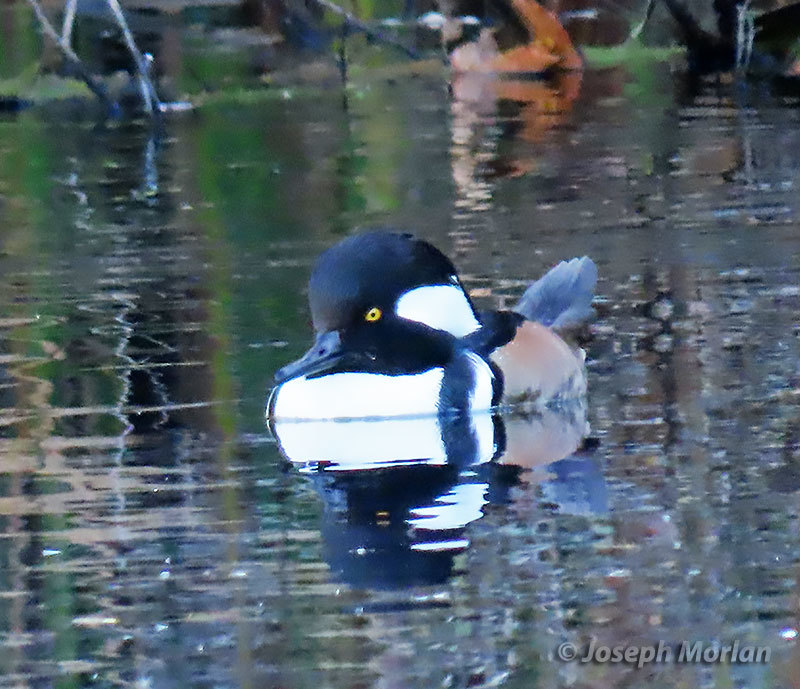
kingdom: Animalia
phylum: Chordata
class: Aves
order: Anseriformes
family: Anatidae
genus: Lophodytes
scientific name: Lophodytes cucullatus
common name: Hooded merganser
